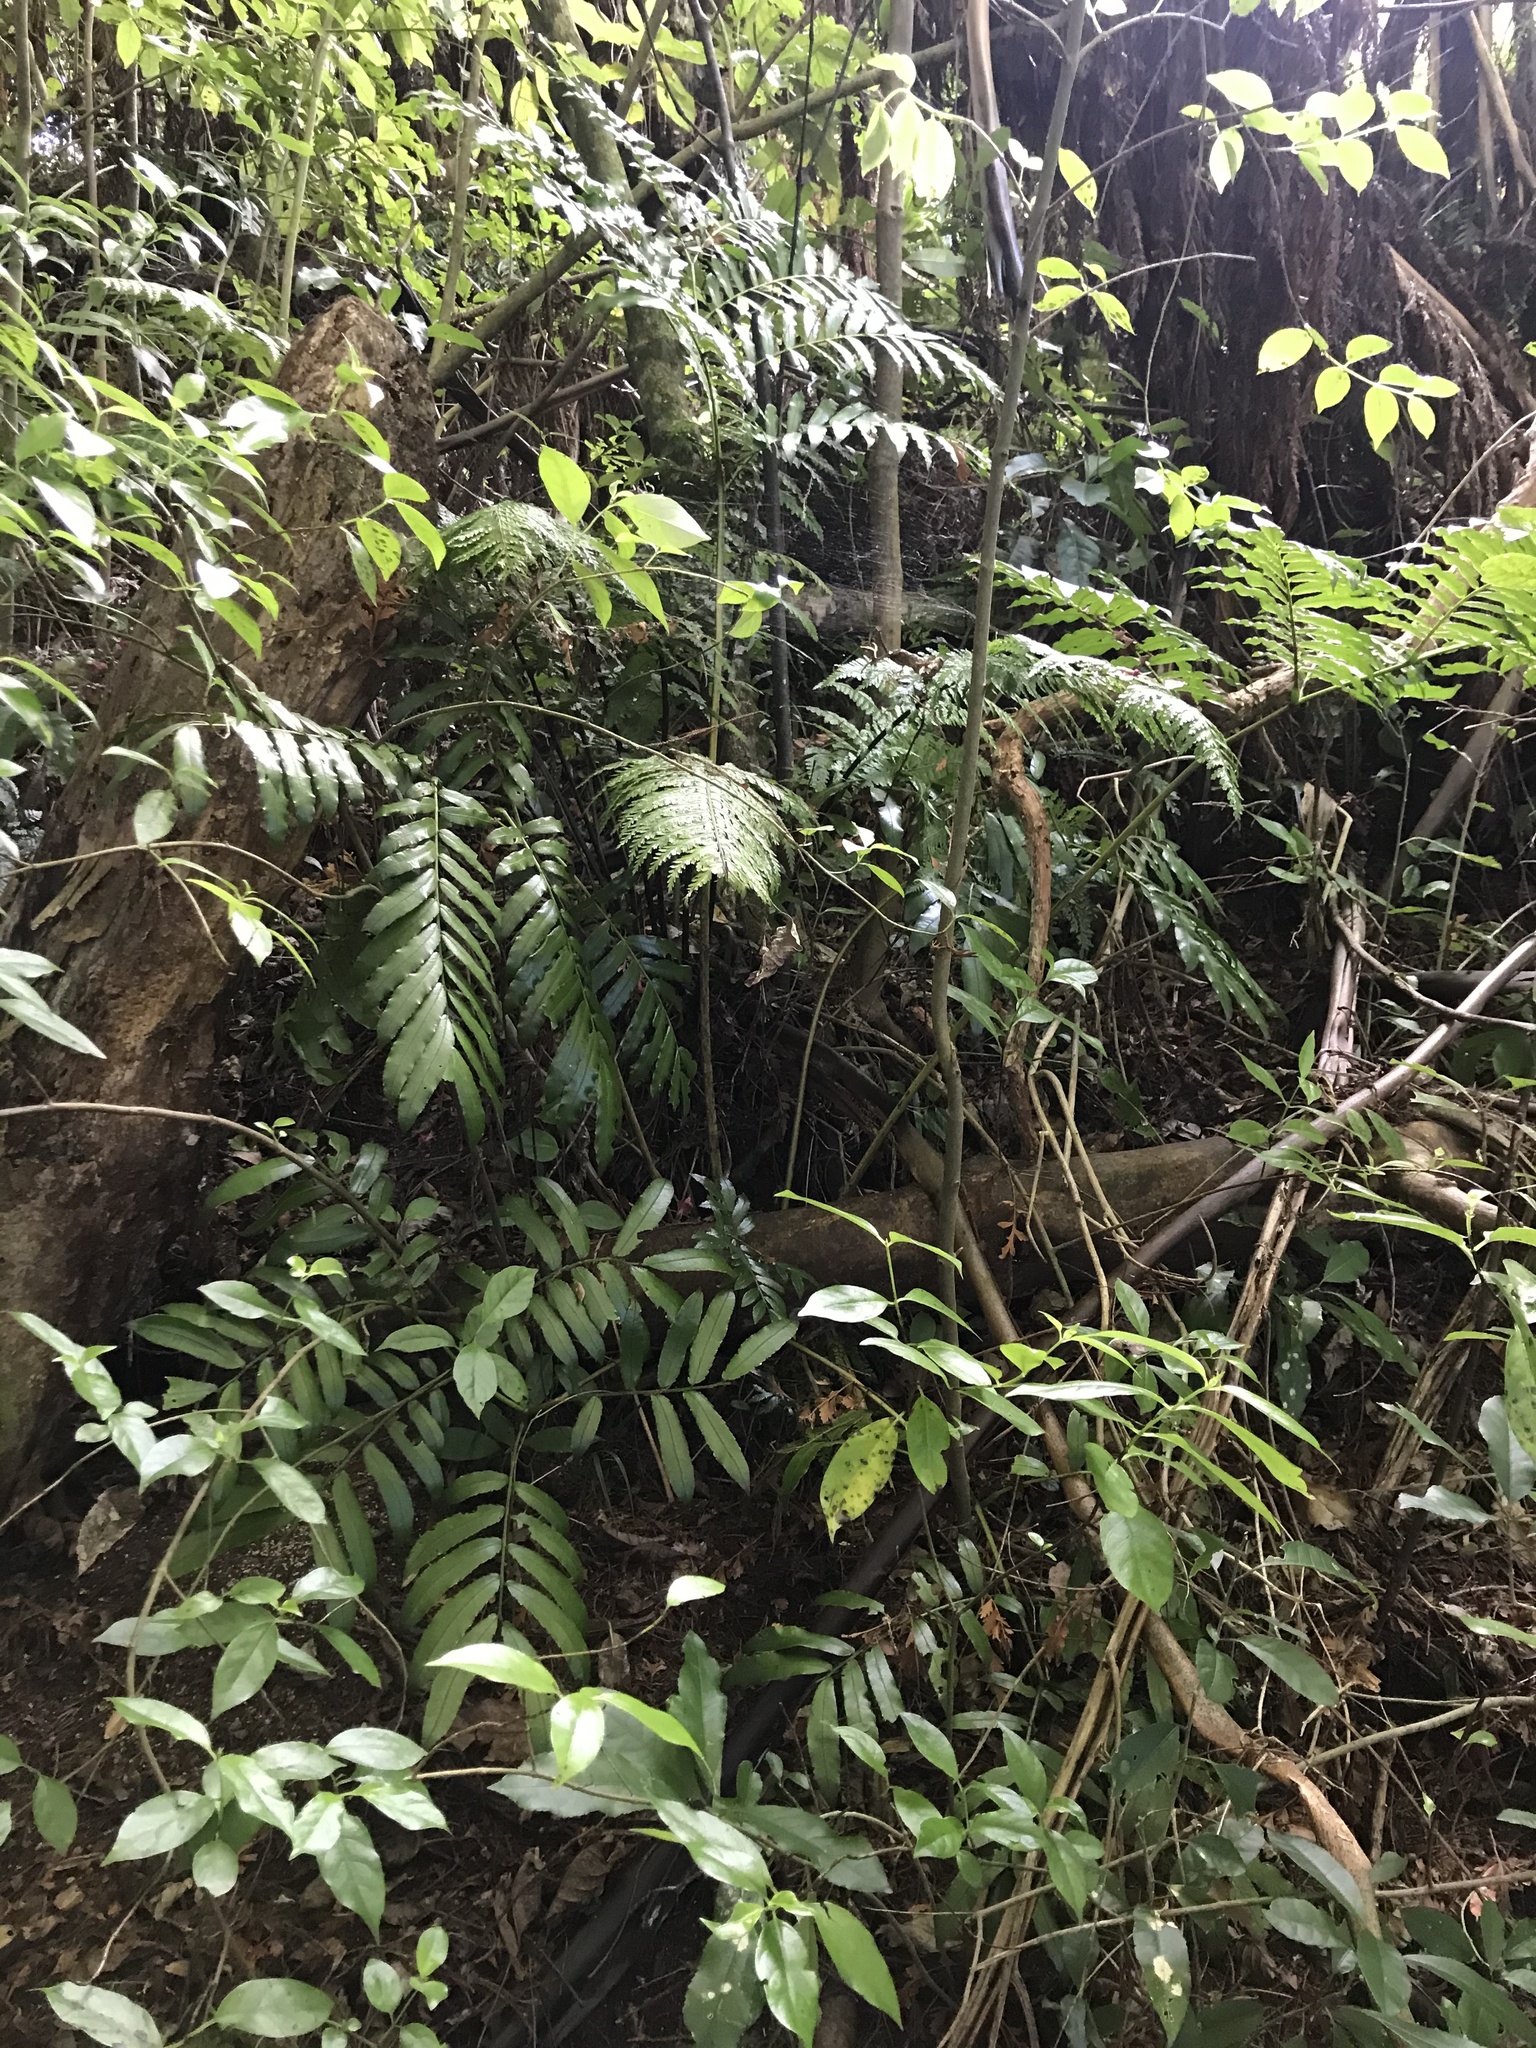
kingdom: Plantae
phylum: Tracheophyta
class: Polypodiopsida
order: Marattiales
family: Marattiaceae
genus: Ptisana
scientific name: Ptisana salicina
